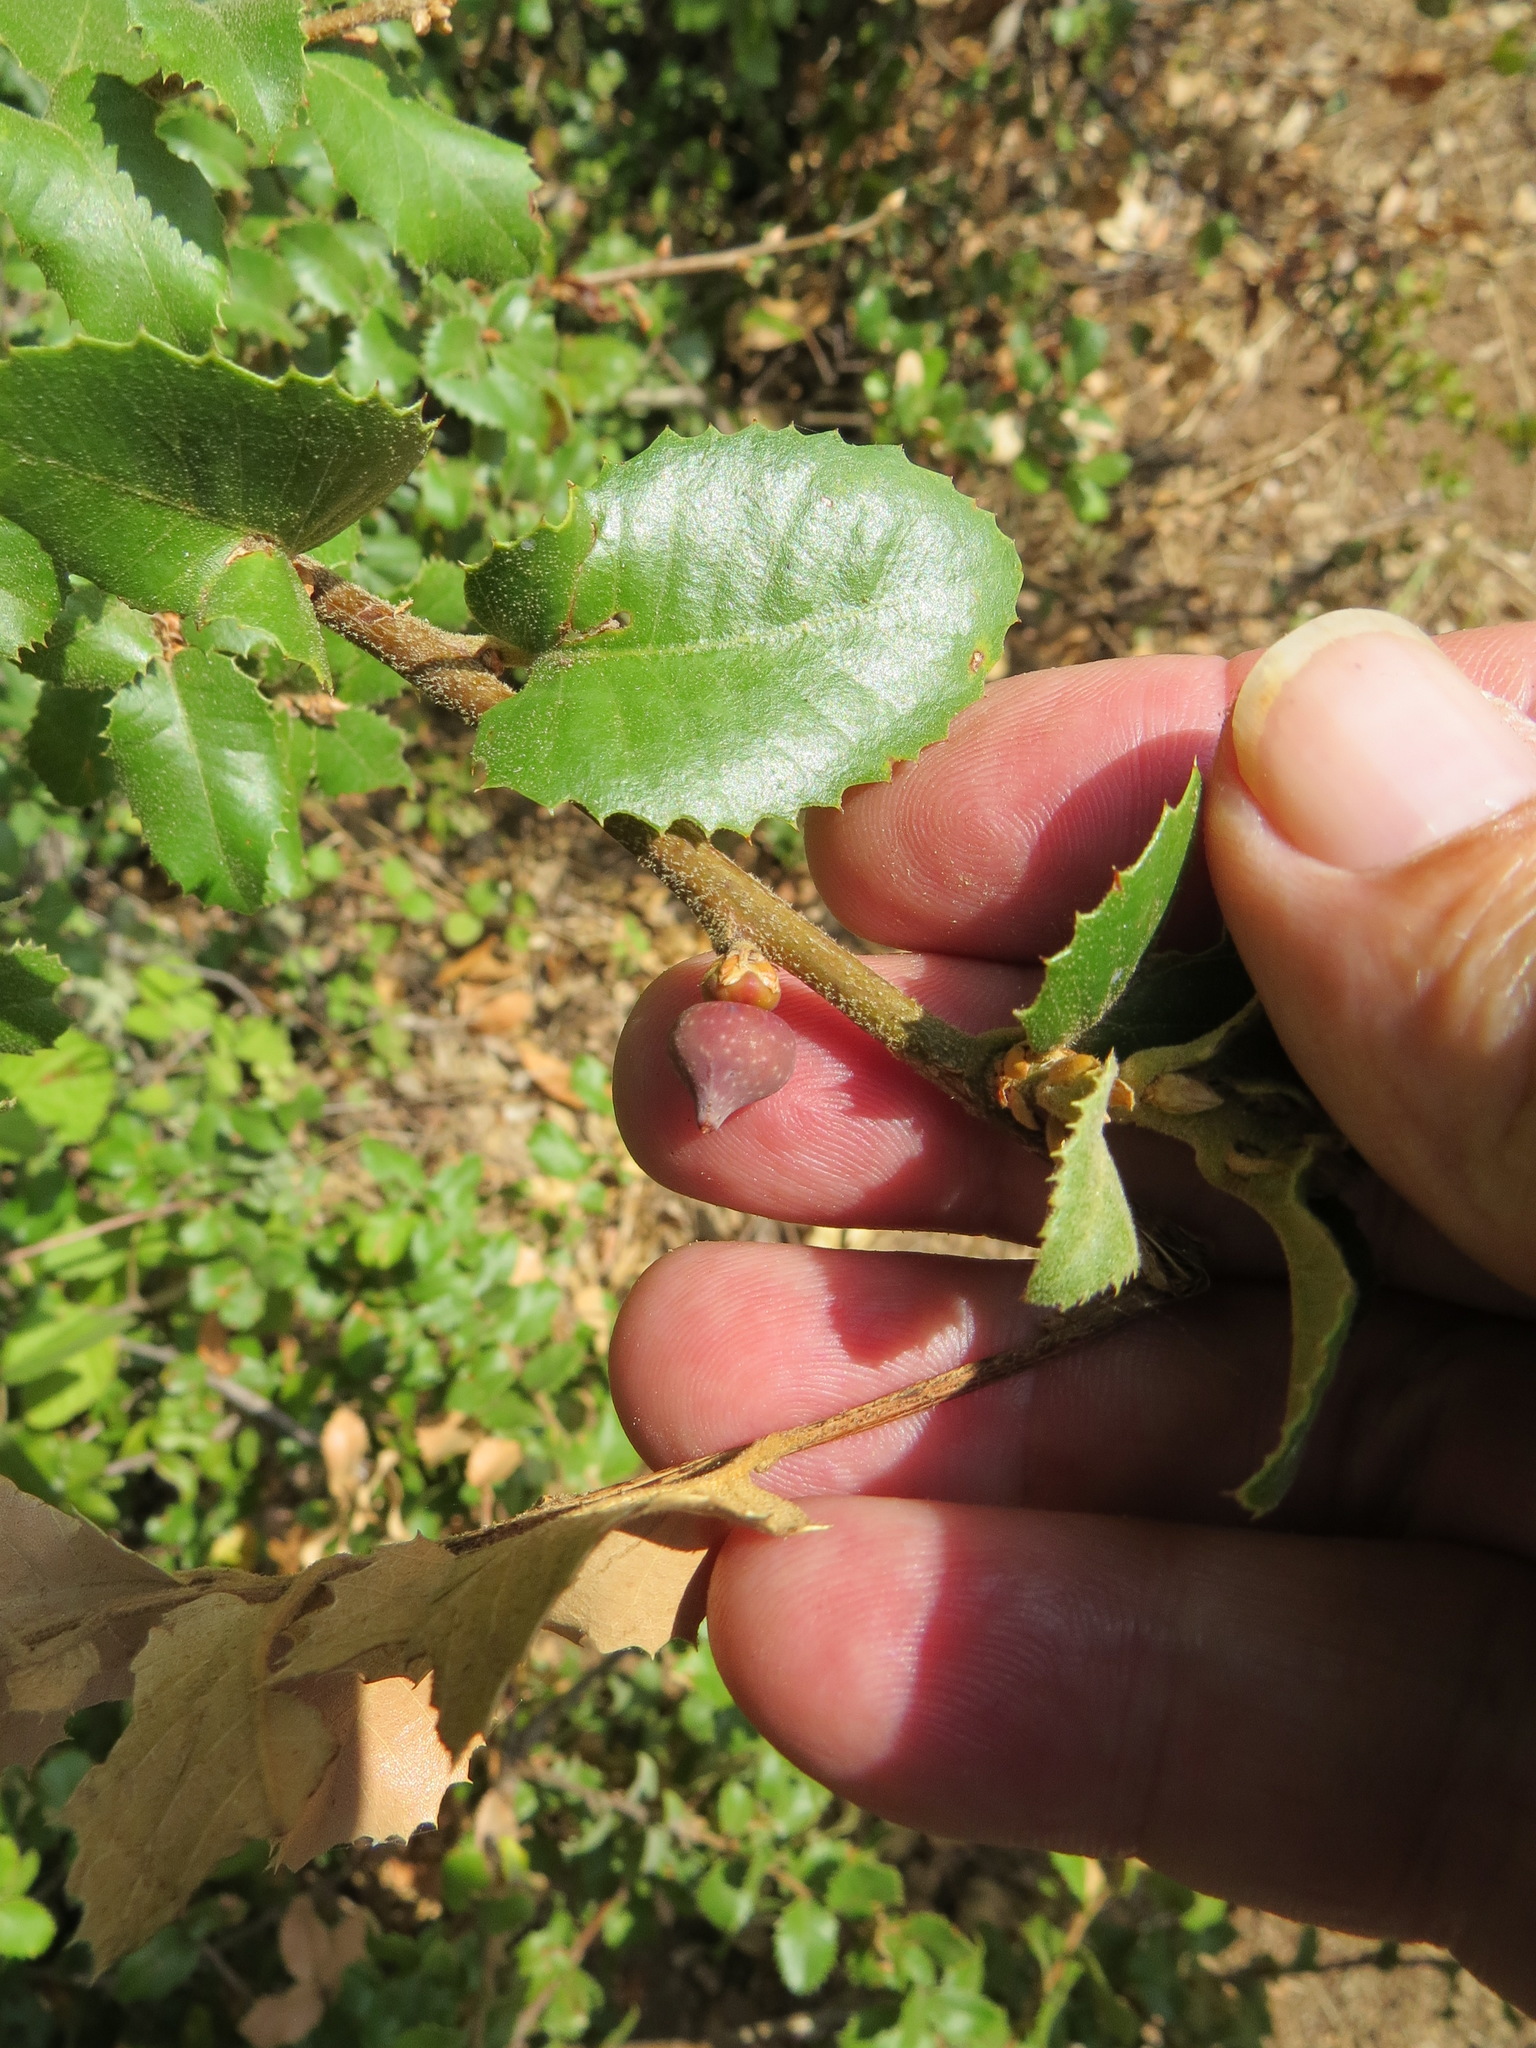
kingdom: Animalia
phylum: Arthropoda
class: Insecta
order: Hymenoptera
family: Cynipidae
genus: Heteroecus
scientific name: Heteroecus
